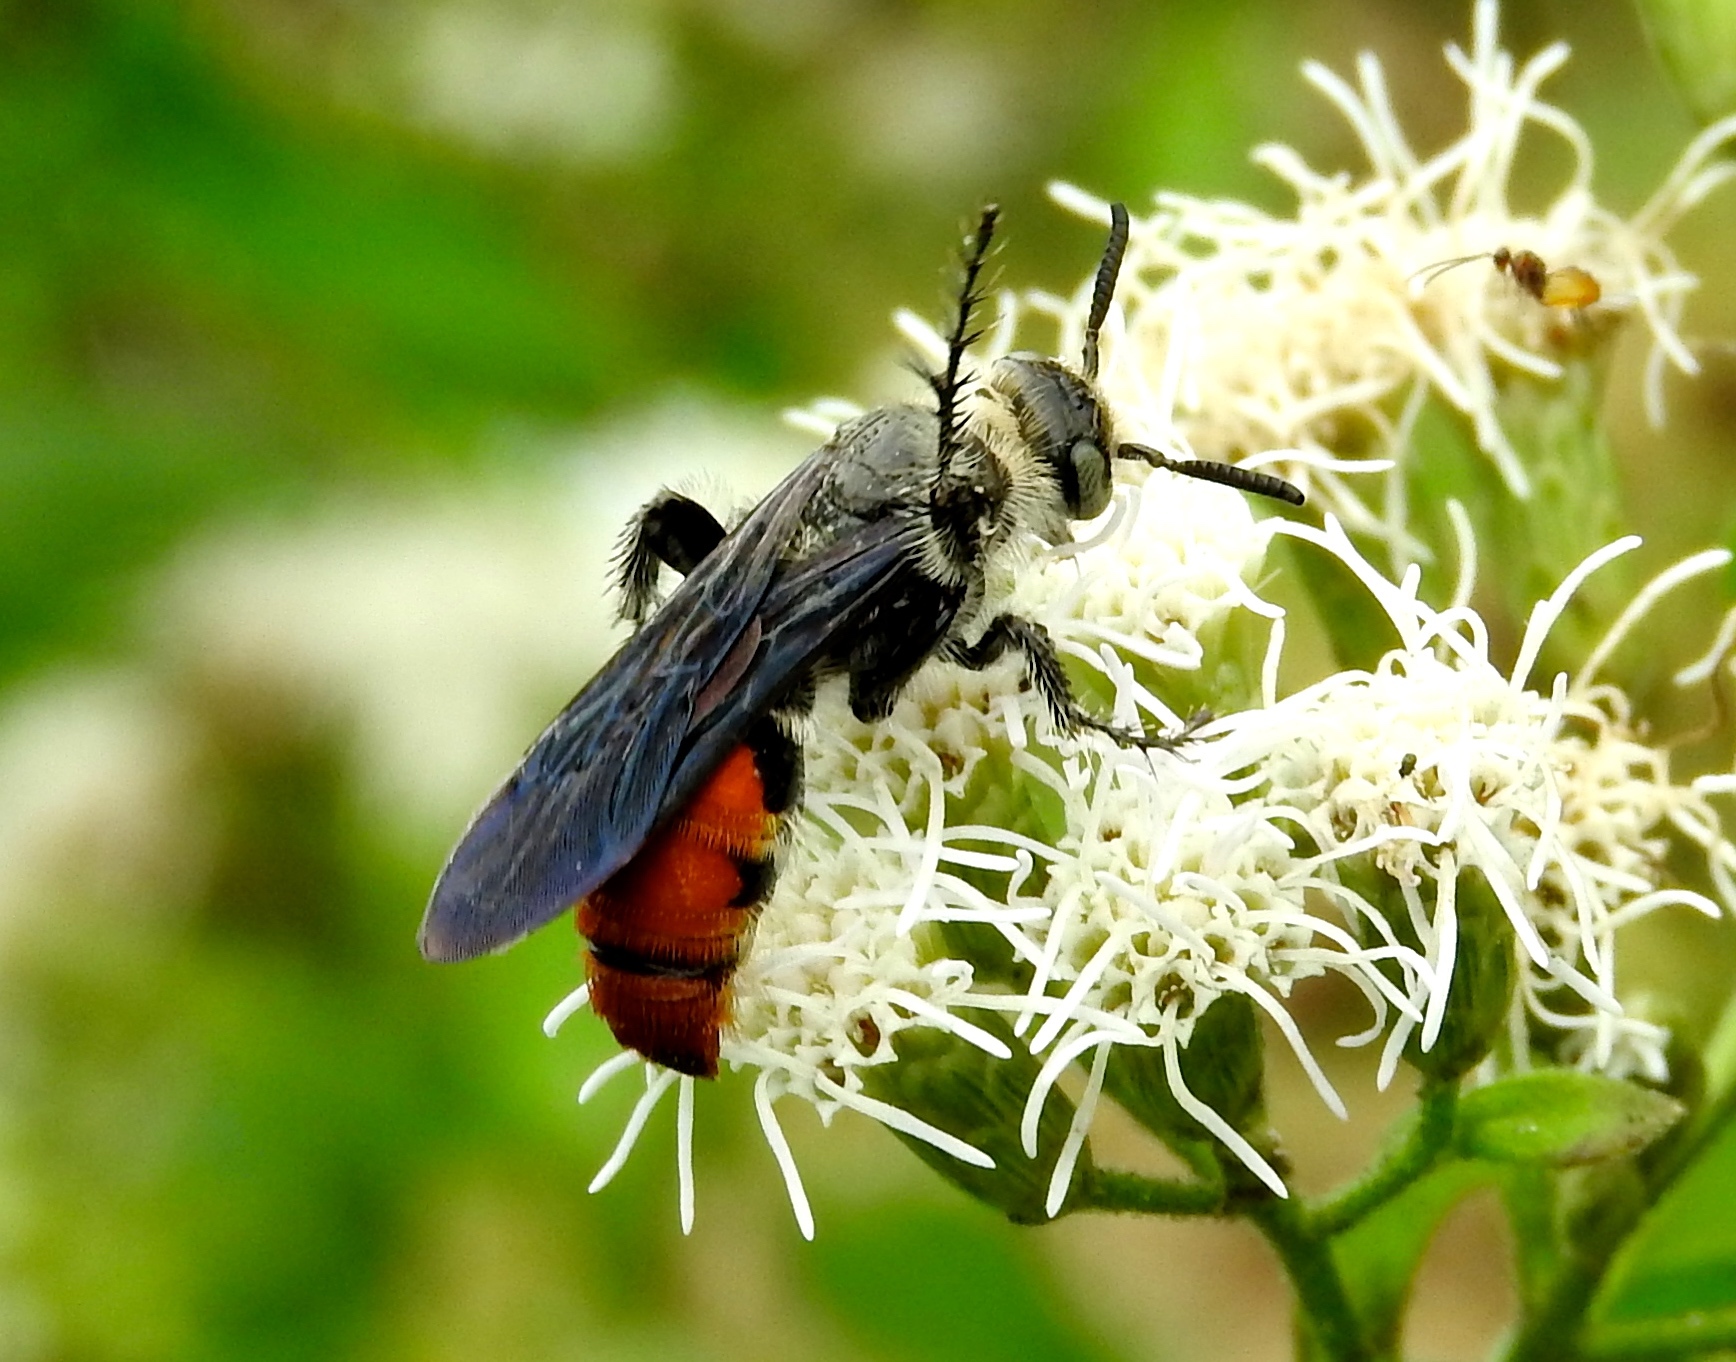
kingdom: Animalia
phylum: Arthropoda
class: Insecta
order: Hymenoptera
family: Scoliidae
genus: Dielis
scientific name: Dielis tolteca
